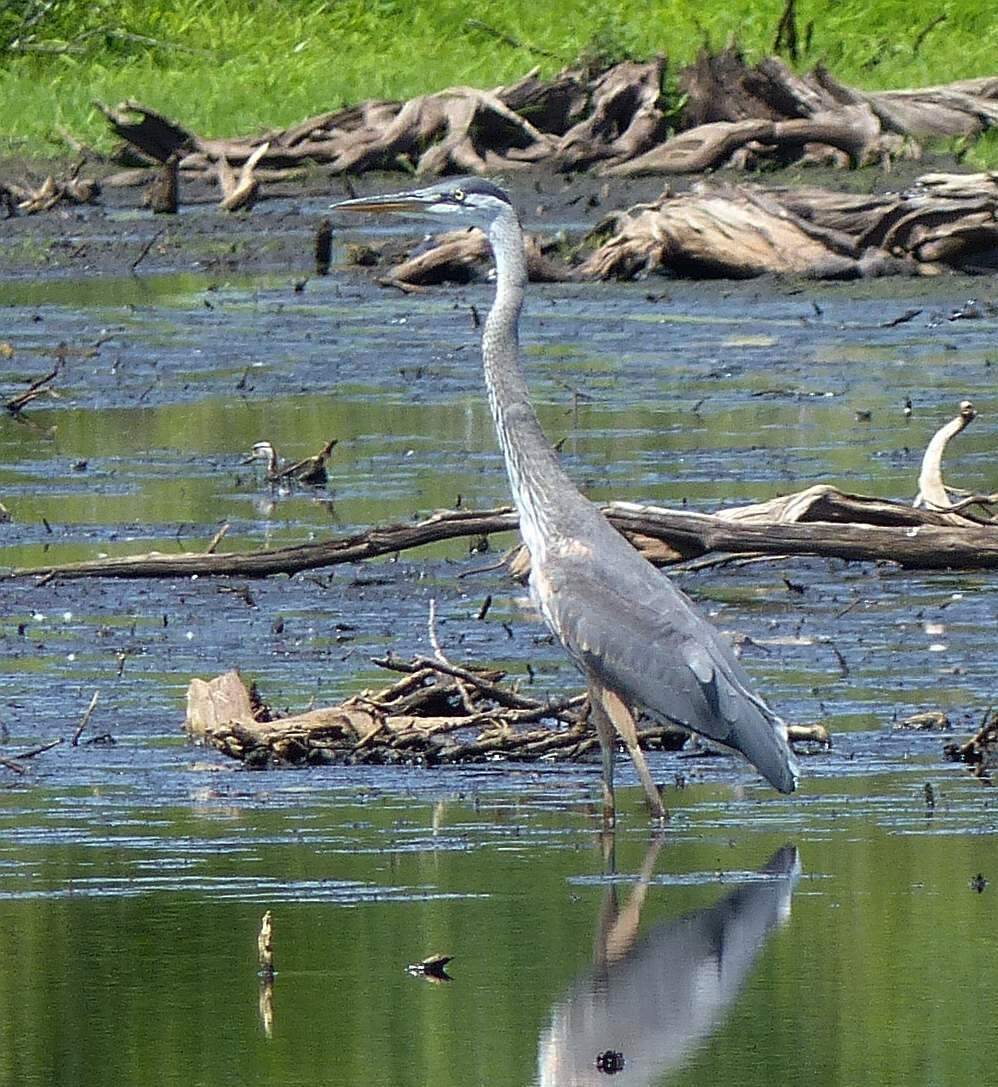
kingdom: Animalia
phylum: Chordata
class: Aves
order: Pelecaniformes
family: Ardeidae
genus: Ardea
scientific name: Ardea herodias
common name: Great blue heron
